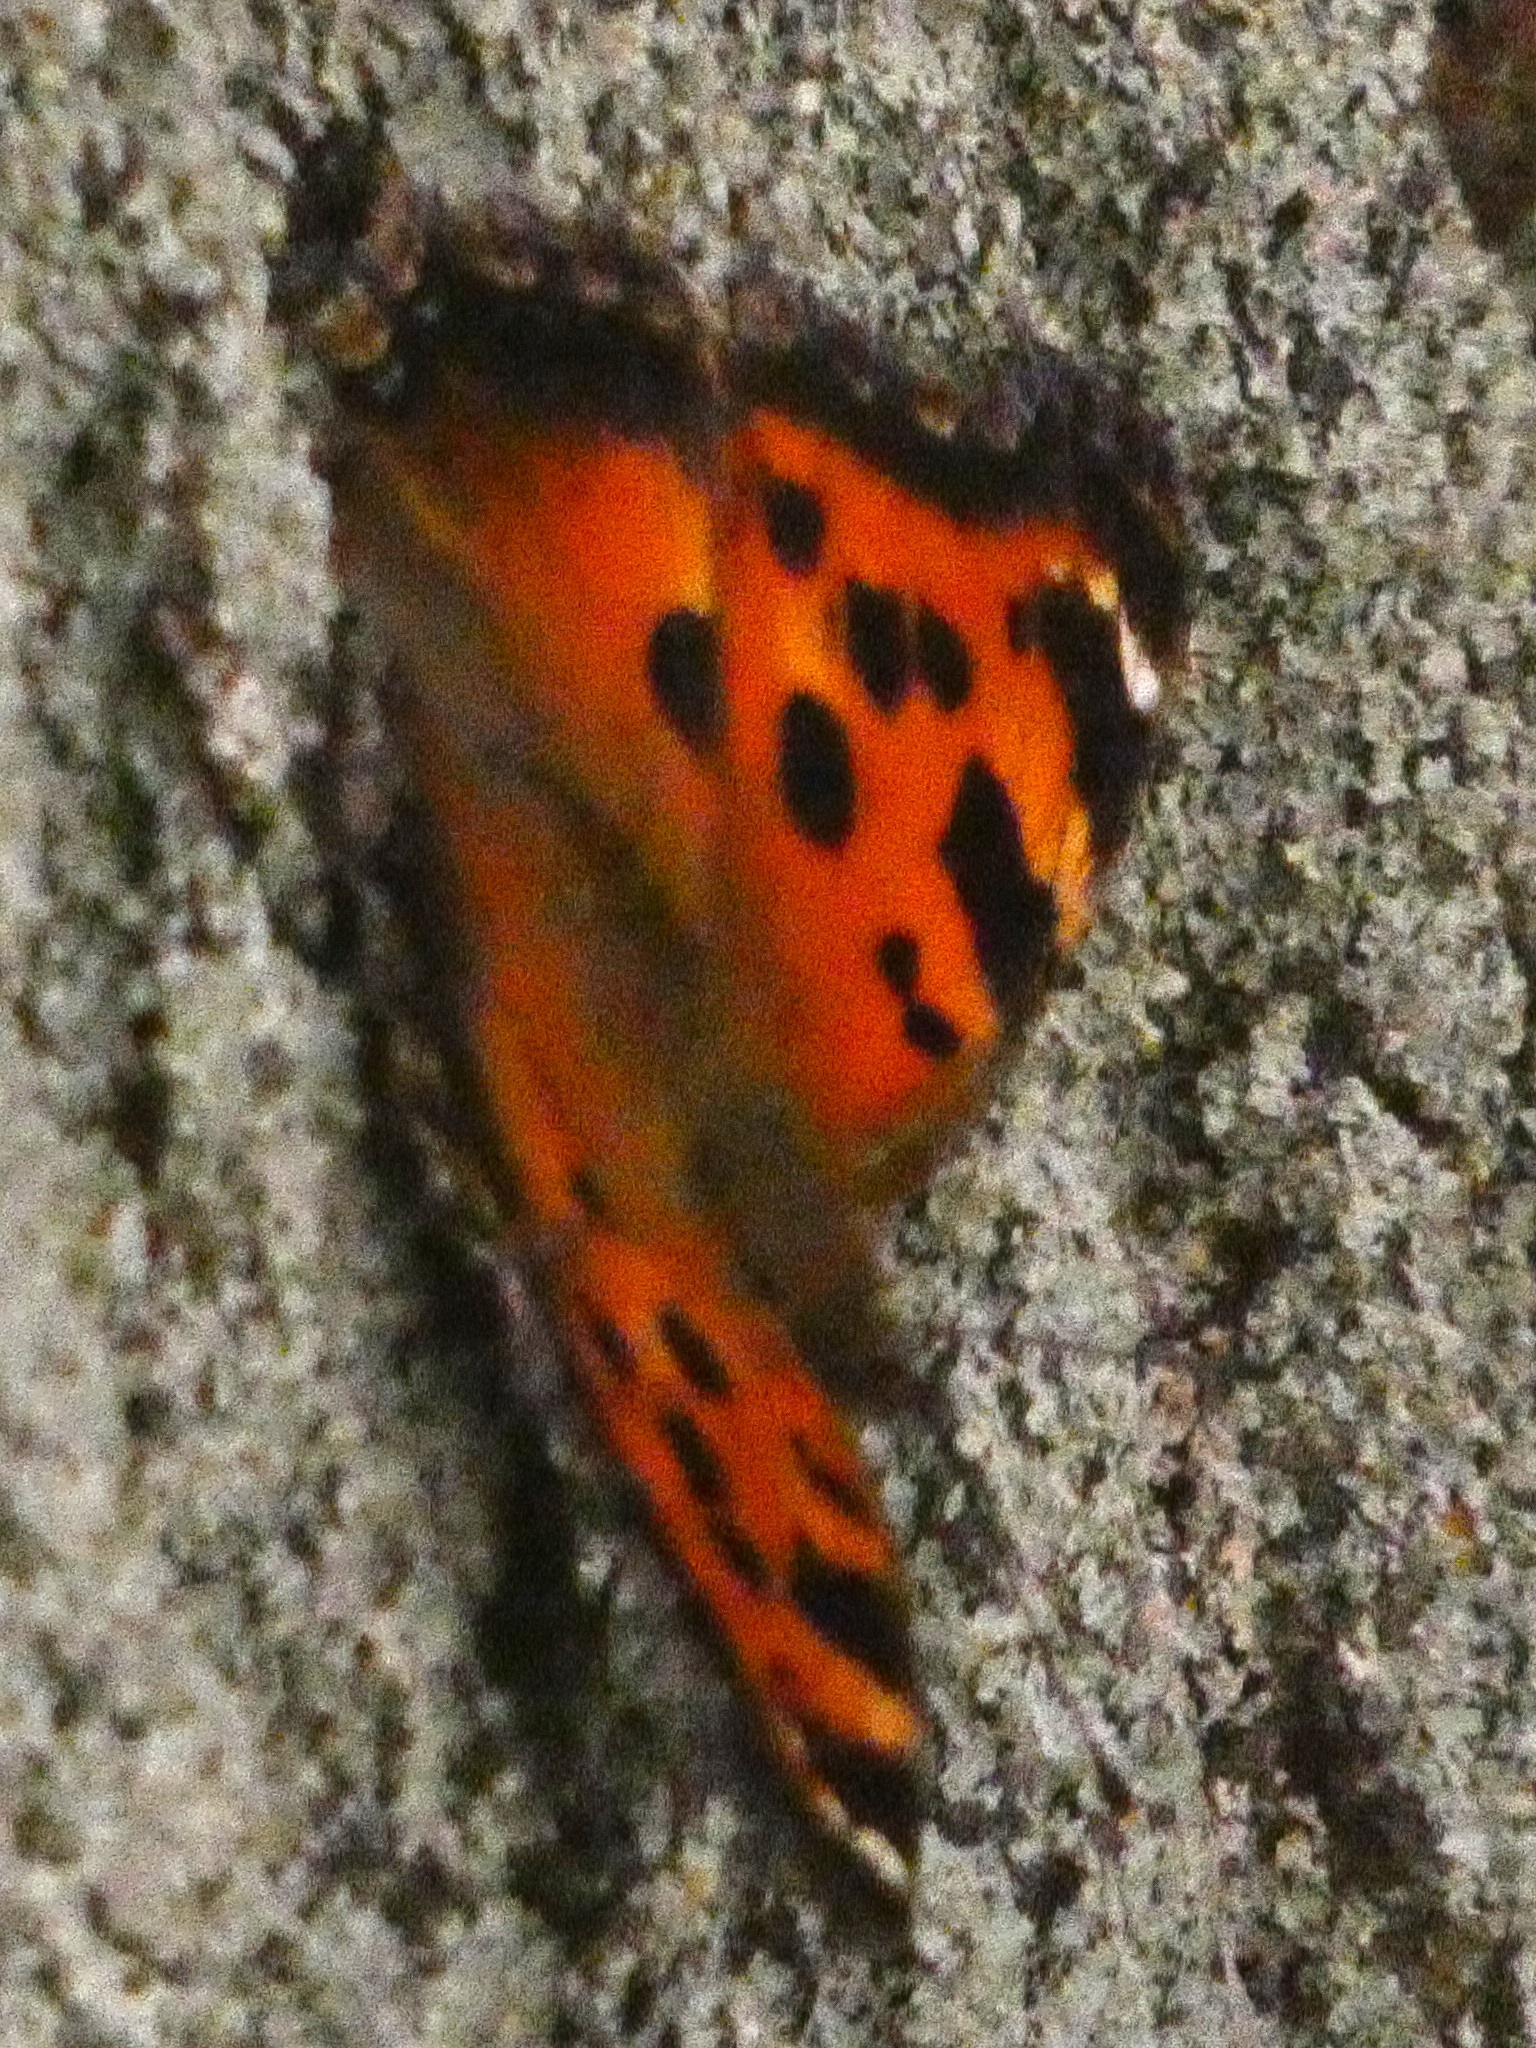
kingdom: Animalia
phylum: Arthropoda
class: Insecta
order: Lepidoptera
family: Nymphalidae
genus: Nymphalis
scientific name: Nymphalis xanthomelas
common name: Scarce tortoiseshell
